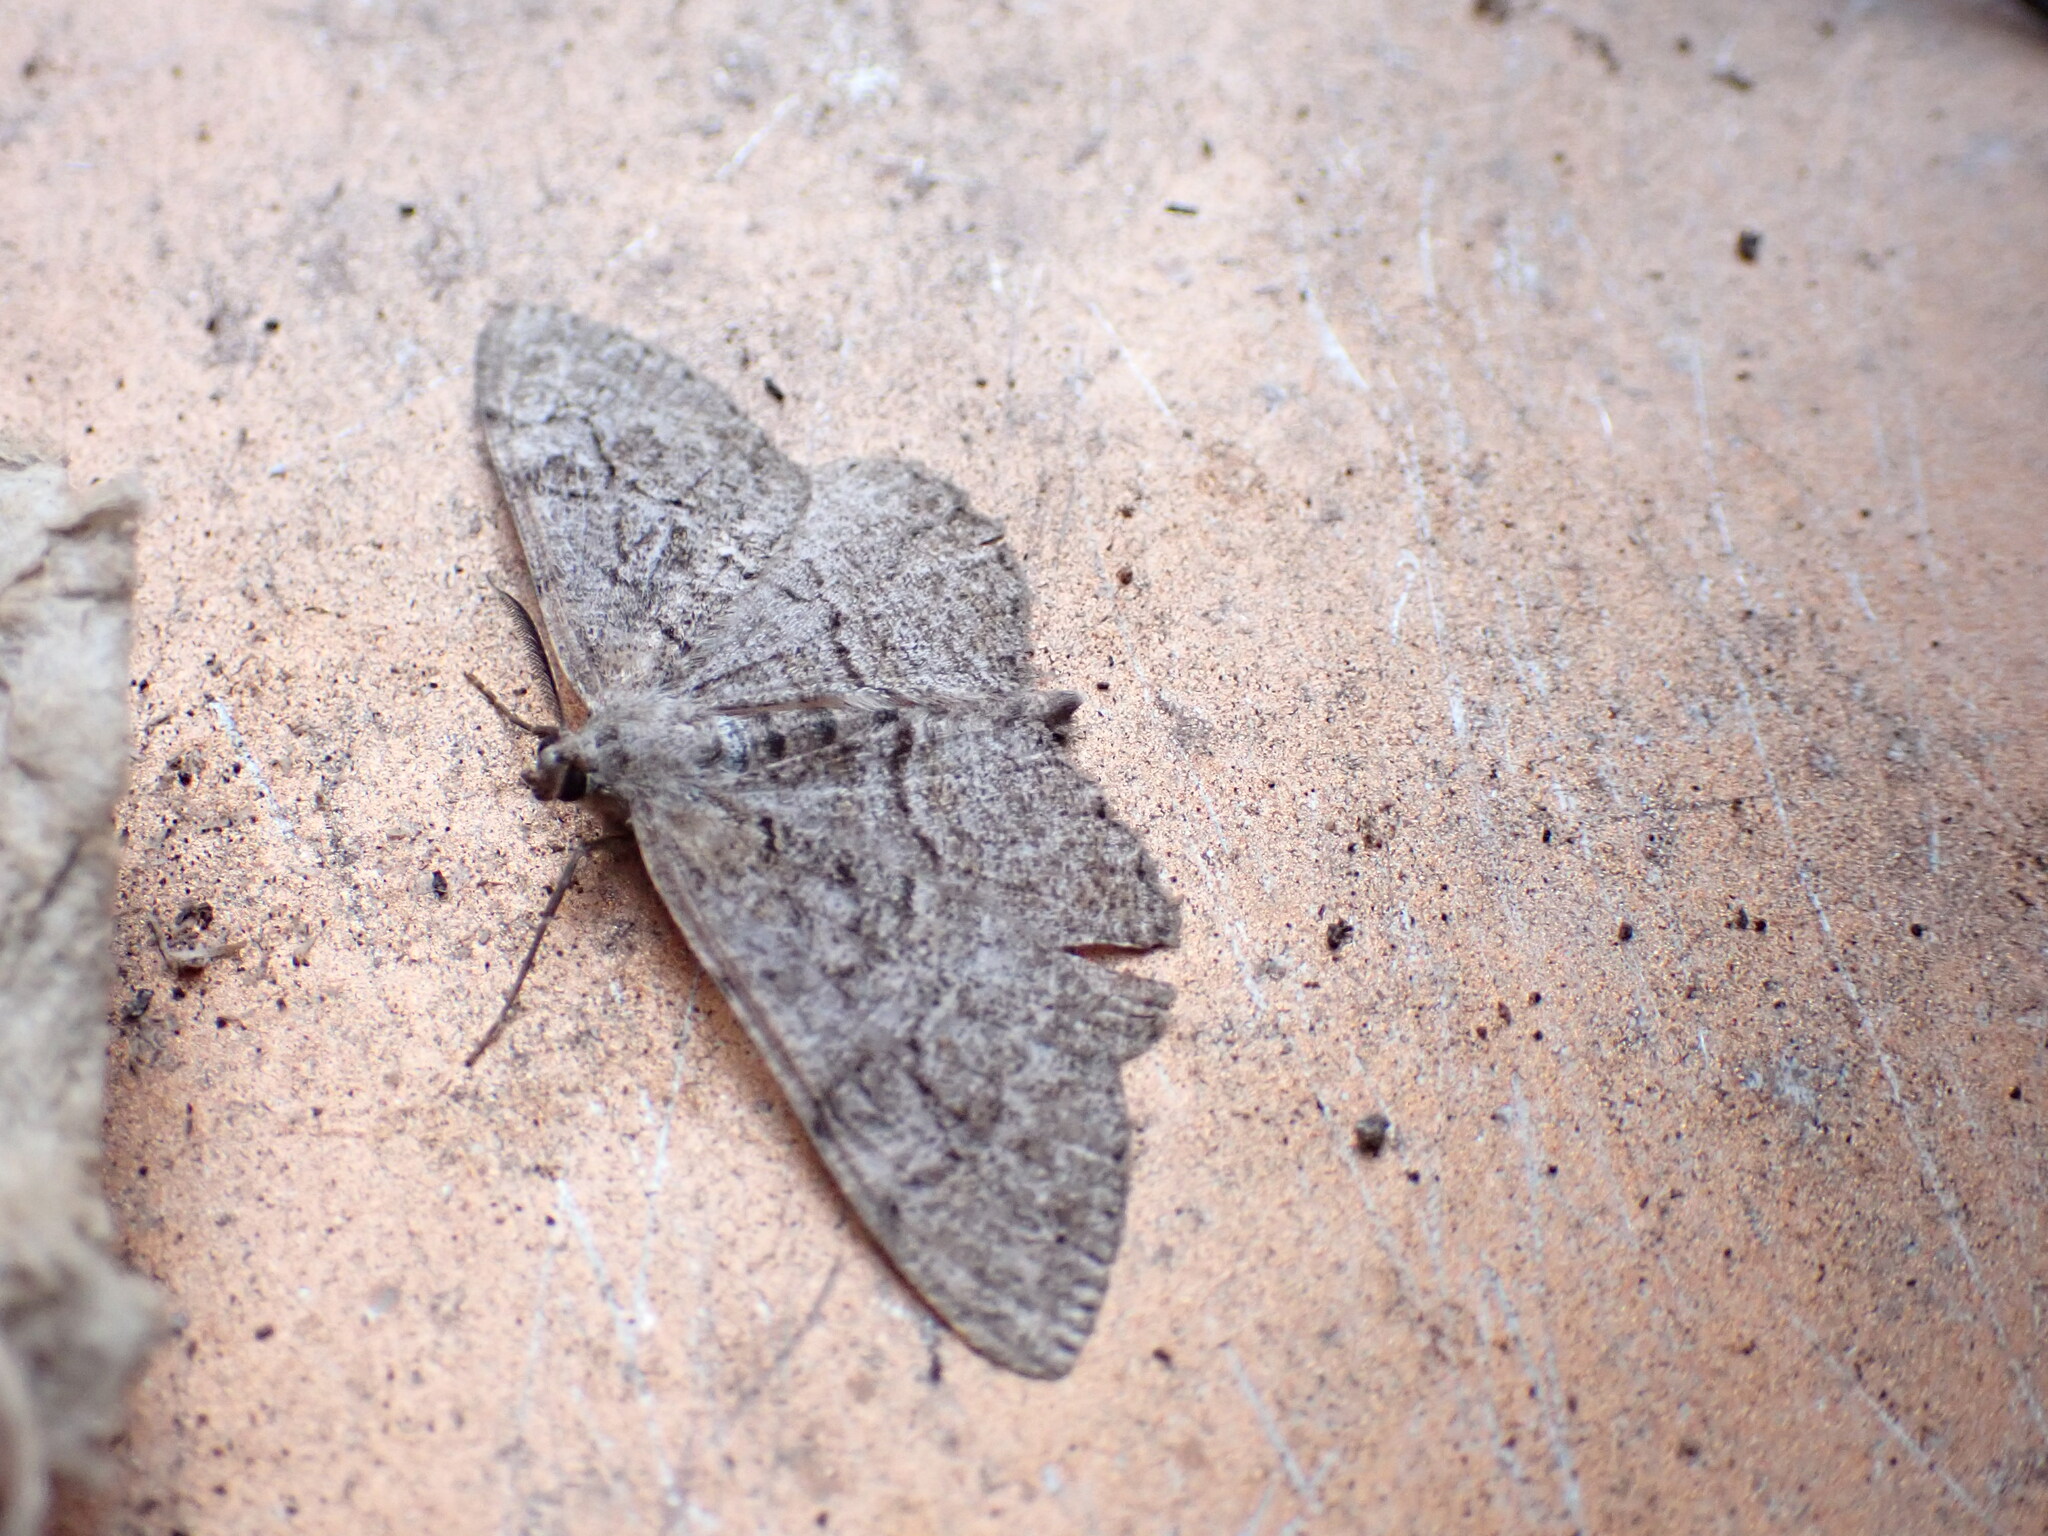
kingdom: Animalia
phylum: Arthropoda
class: Insecta
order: Lepidoptera
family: Geometridae
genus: Alcis
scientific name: Alcis repandata
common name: Mottled beauty
